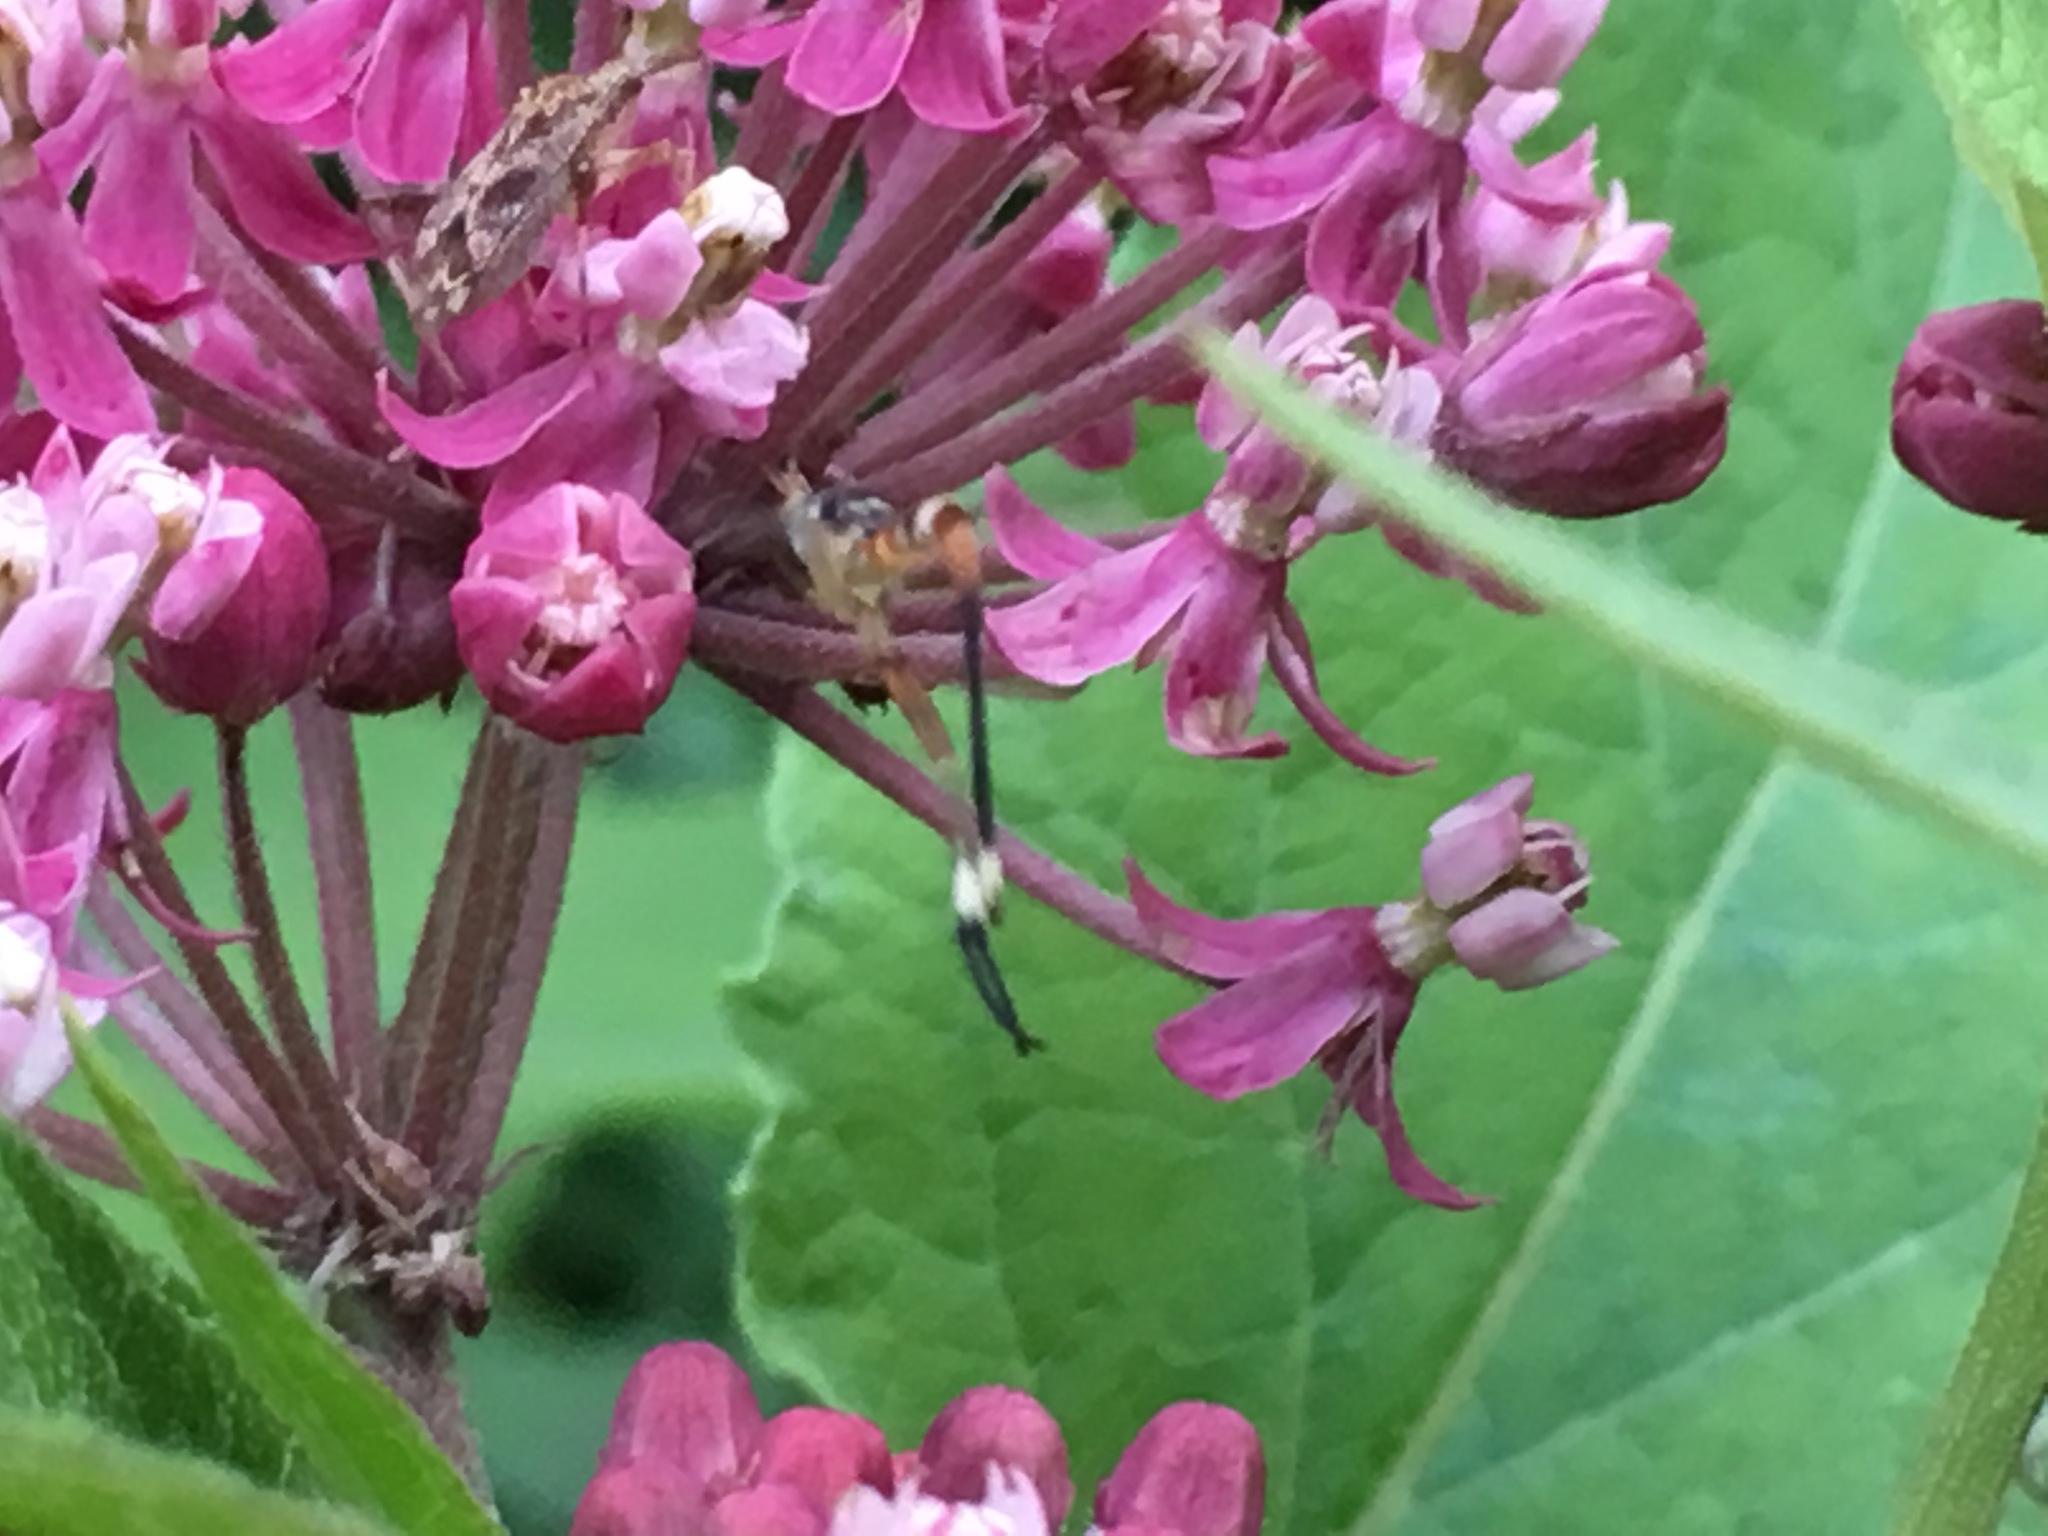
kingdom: Animalia
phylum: Arthropoda
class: Insecta
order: Diptera
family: Conopidae
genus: Stylogaster
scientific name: Stylogaster neglecta
